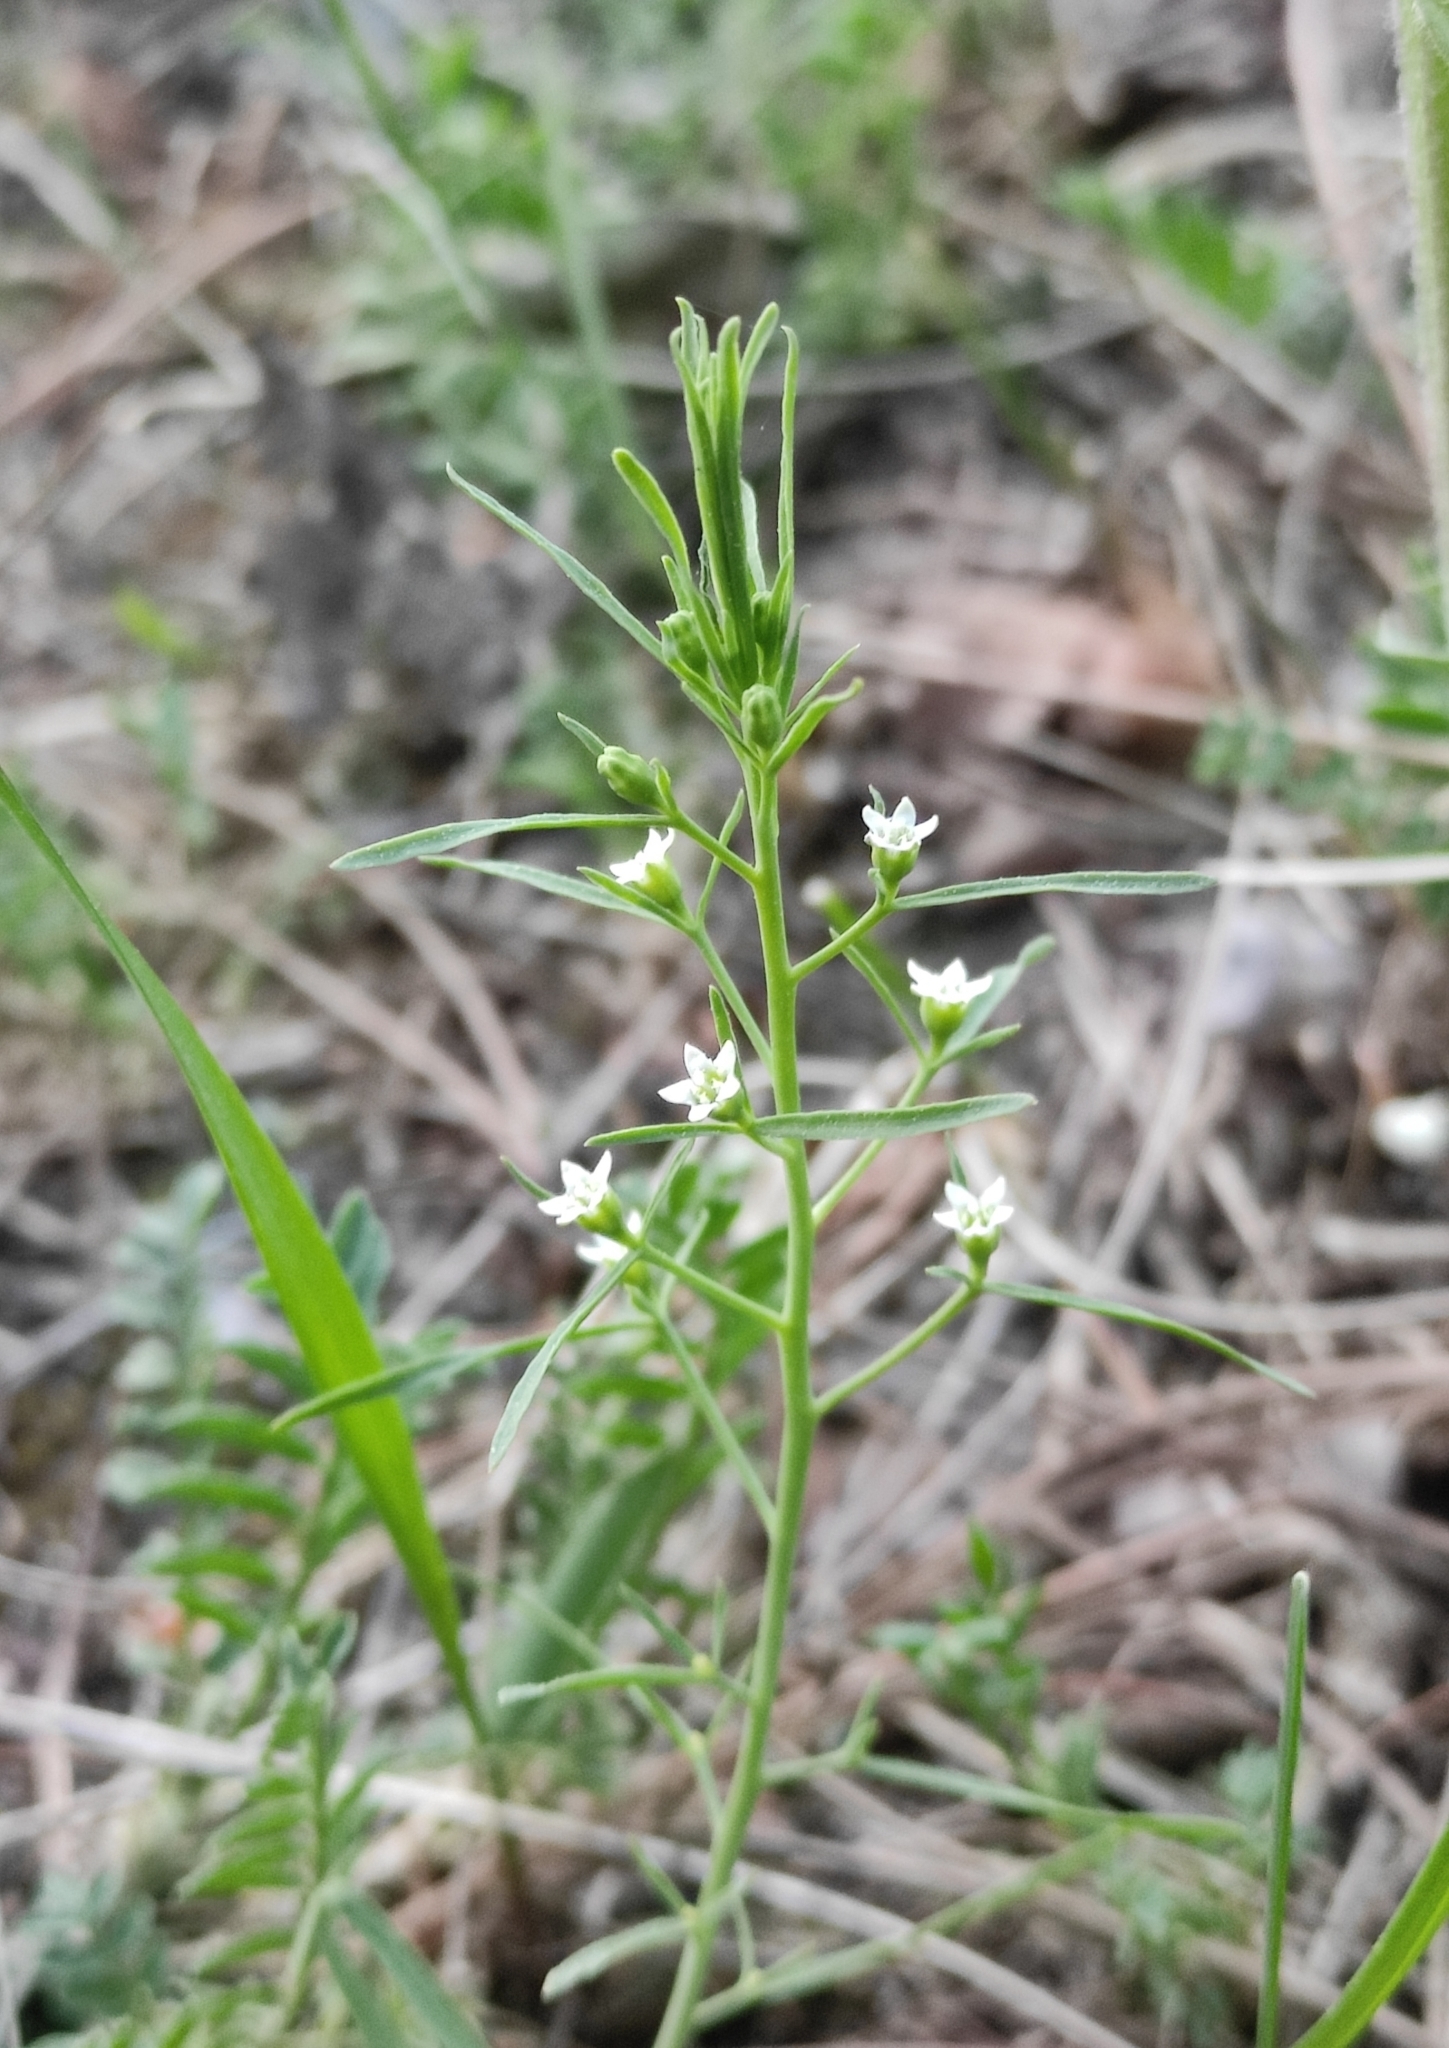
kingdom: Plantae
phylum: Tracheophyta
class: Magnoliopsida
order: Santalales
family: Thesiaceae
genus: Thesium
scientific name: Thesium repens
